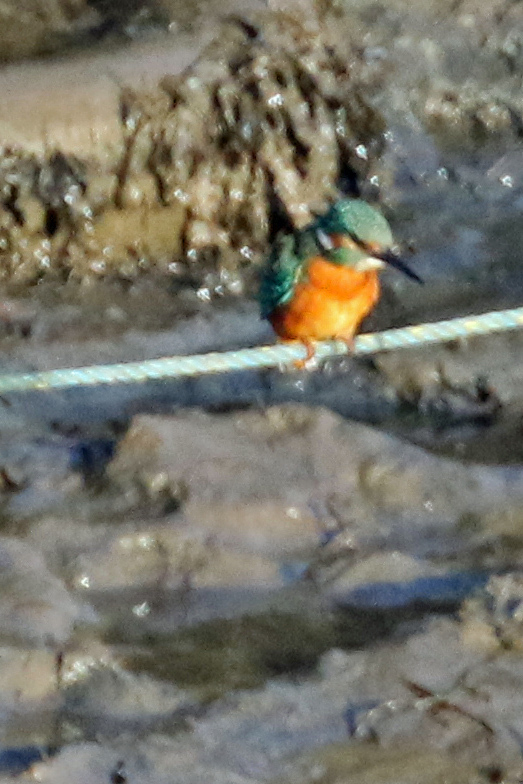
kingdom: Animalia
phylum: Chordata
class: Aves
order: Coraciiformes
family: Alcedinidae
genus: Alcedo
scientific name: Alcedo atthis
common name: Common kingfisher
